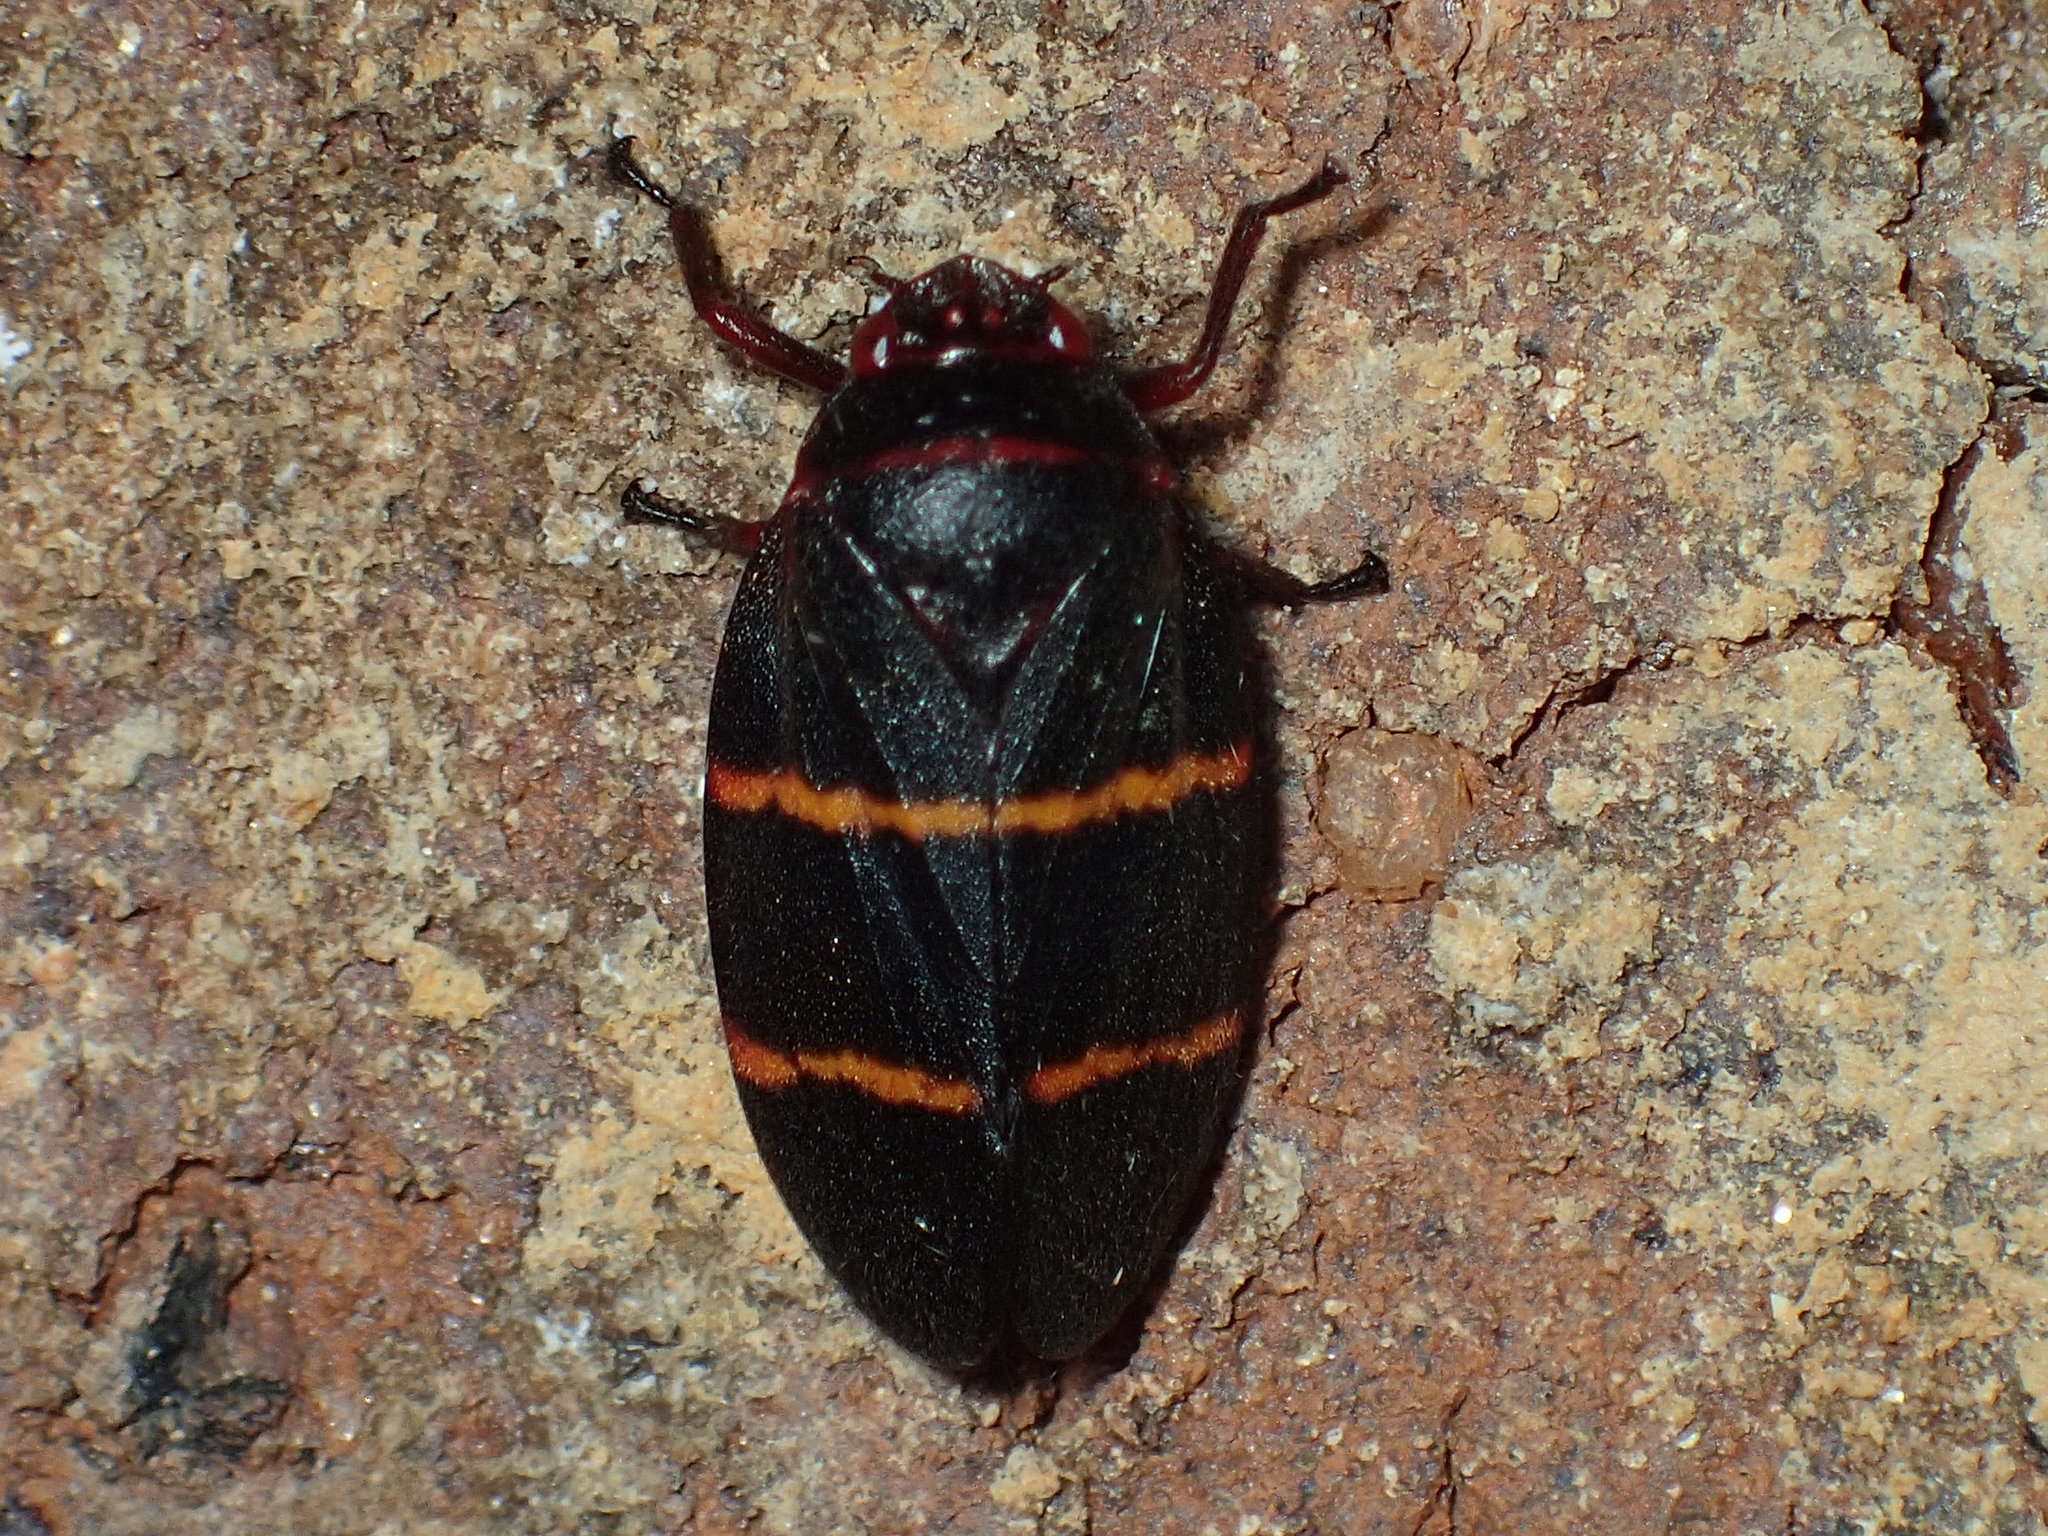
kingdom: Animalia
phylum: Arthropoda
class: Insecta
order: Hemiptera
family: Cercopidae
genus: Prosapia
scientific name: Prosapia bicincta
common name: Twolined spittlebug
